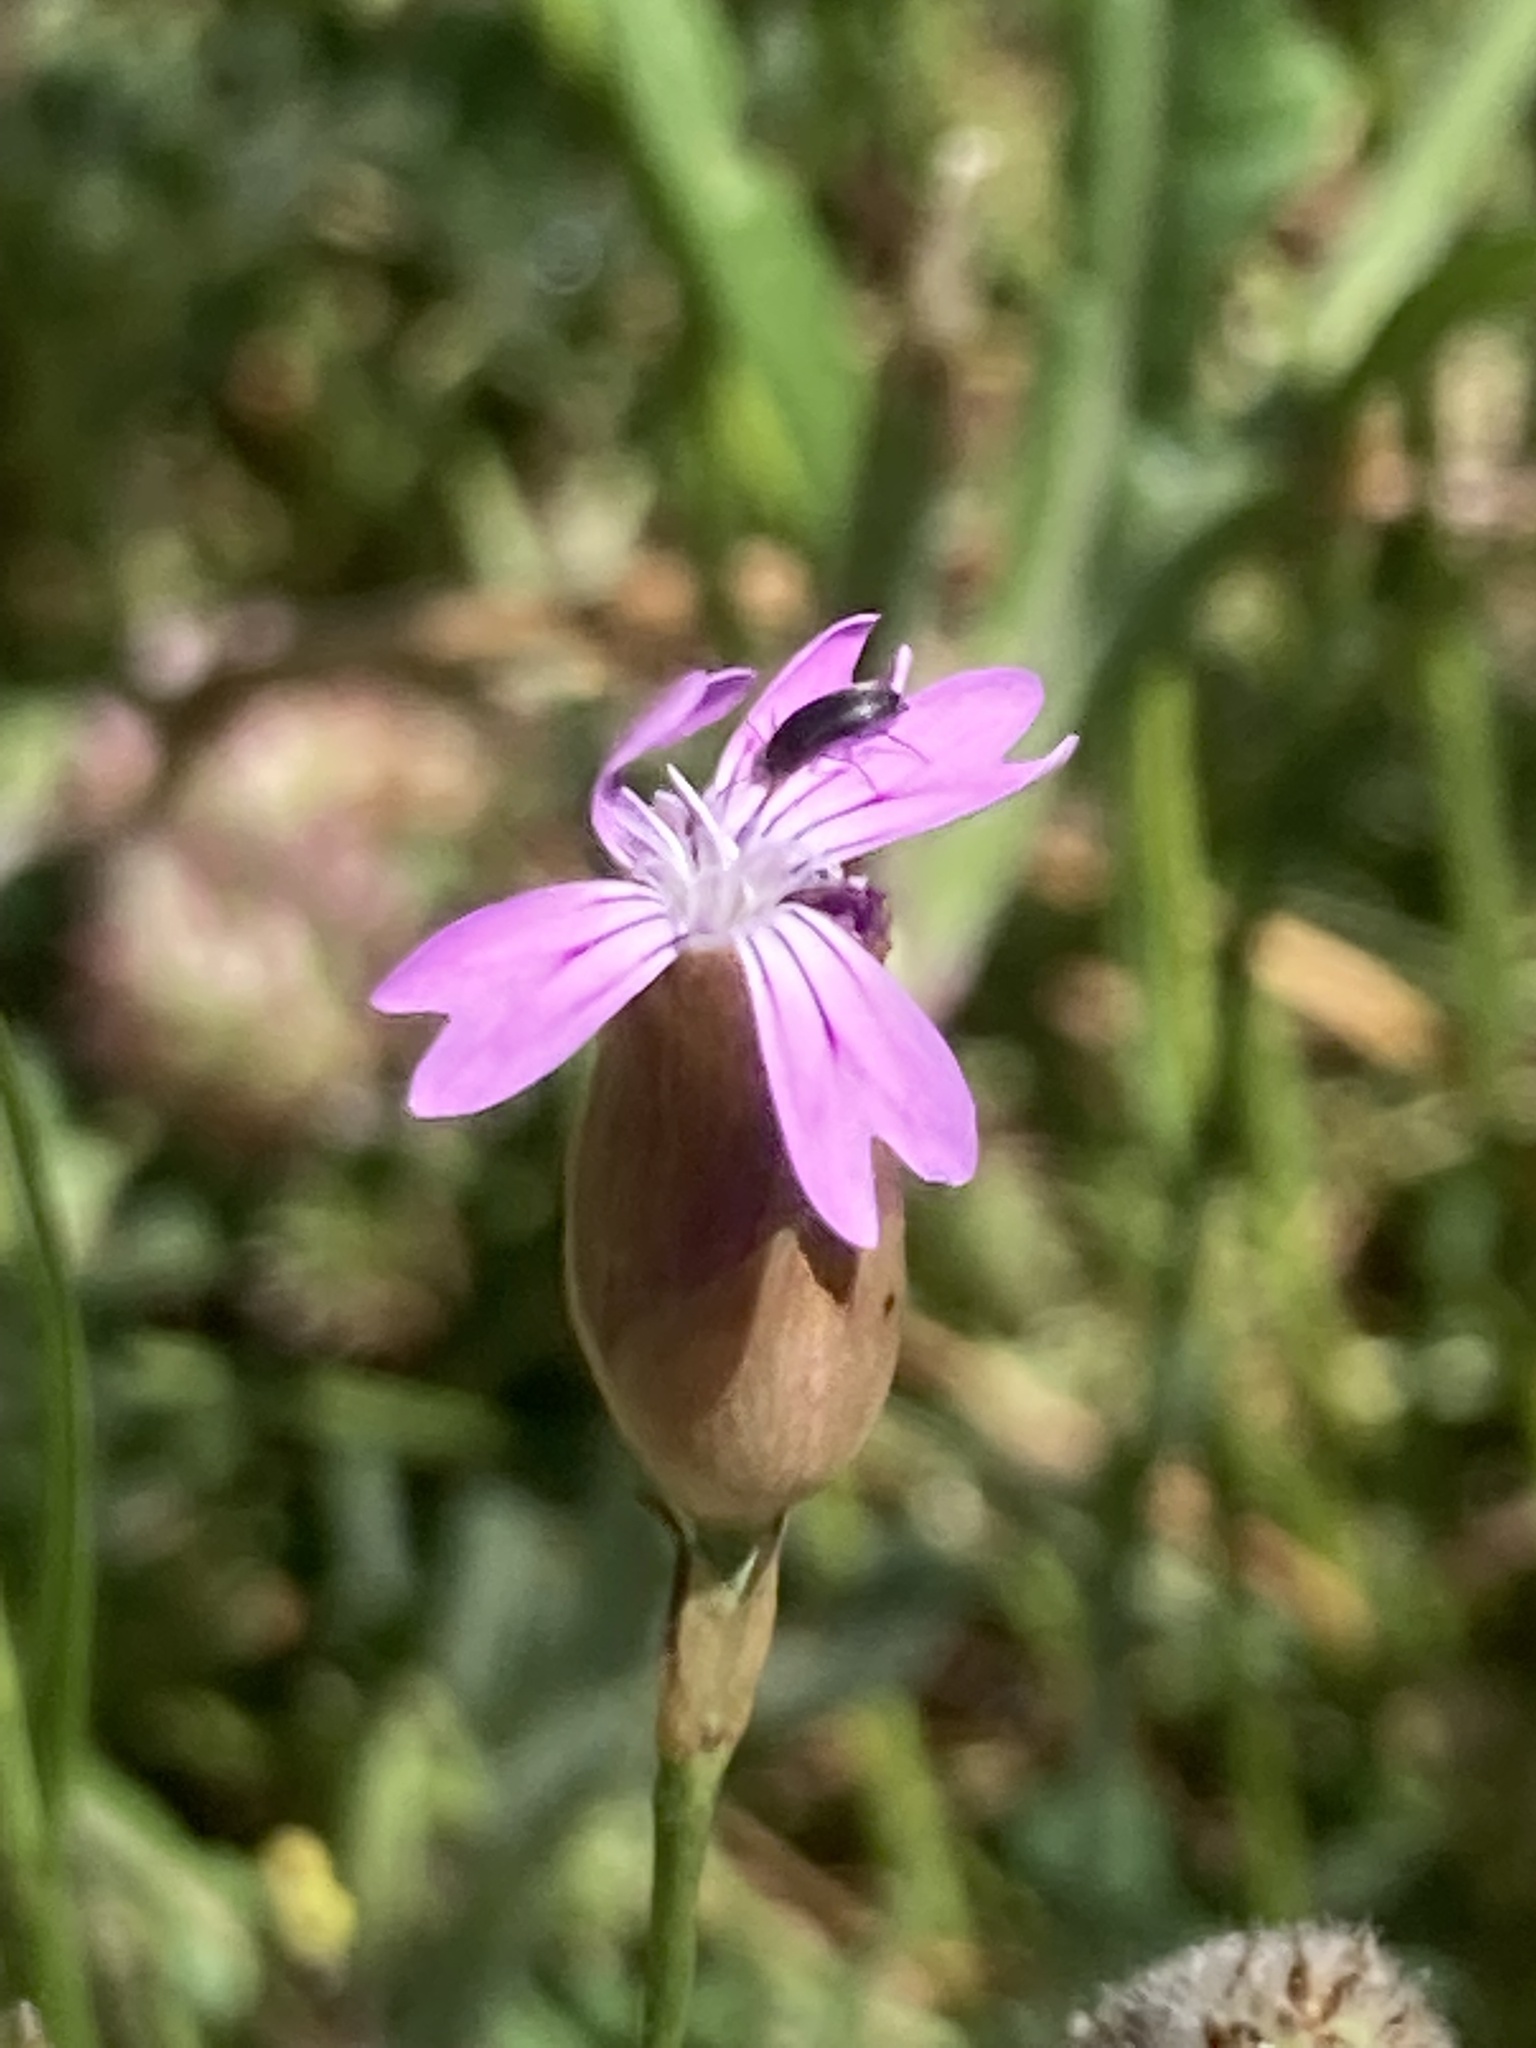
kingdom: Plantae
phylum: Tracheophyta
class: Magnoliopsida
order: Caryophyllales
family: Caryophyllaceae
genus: Petrorhagia
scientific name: Petrorhagia dubia
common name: Hairypink
